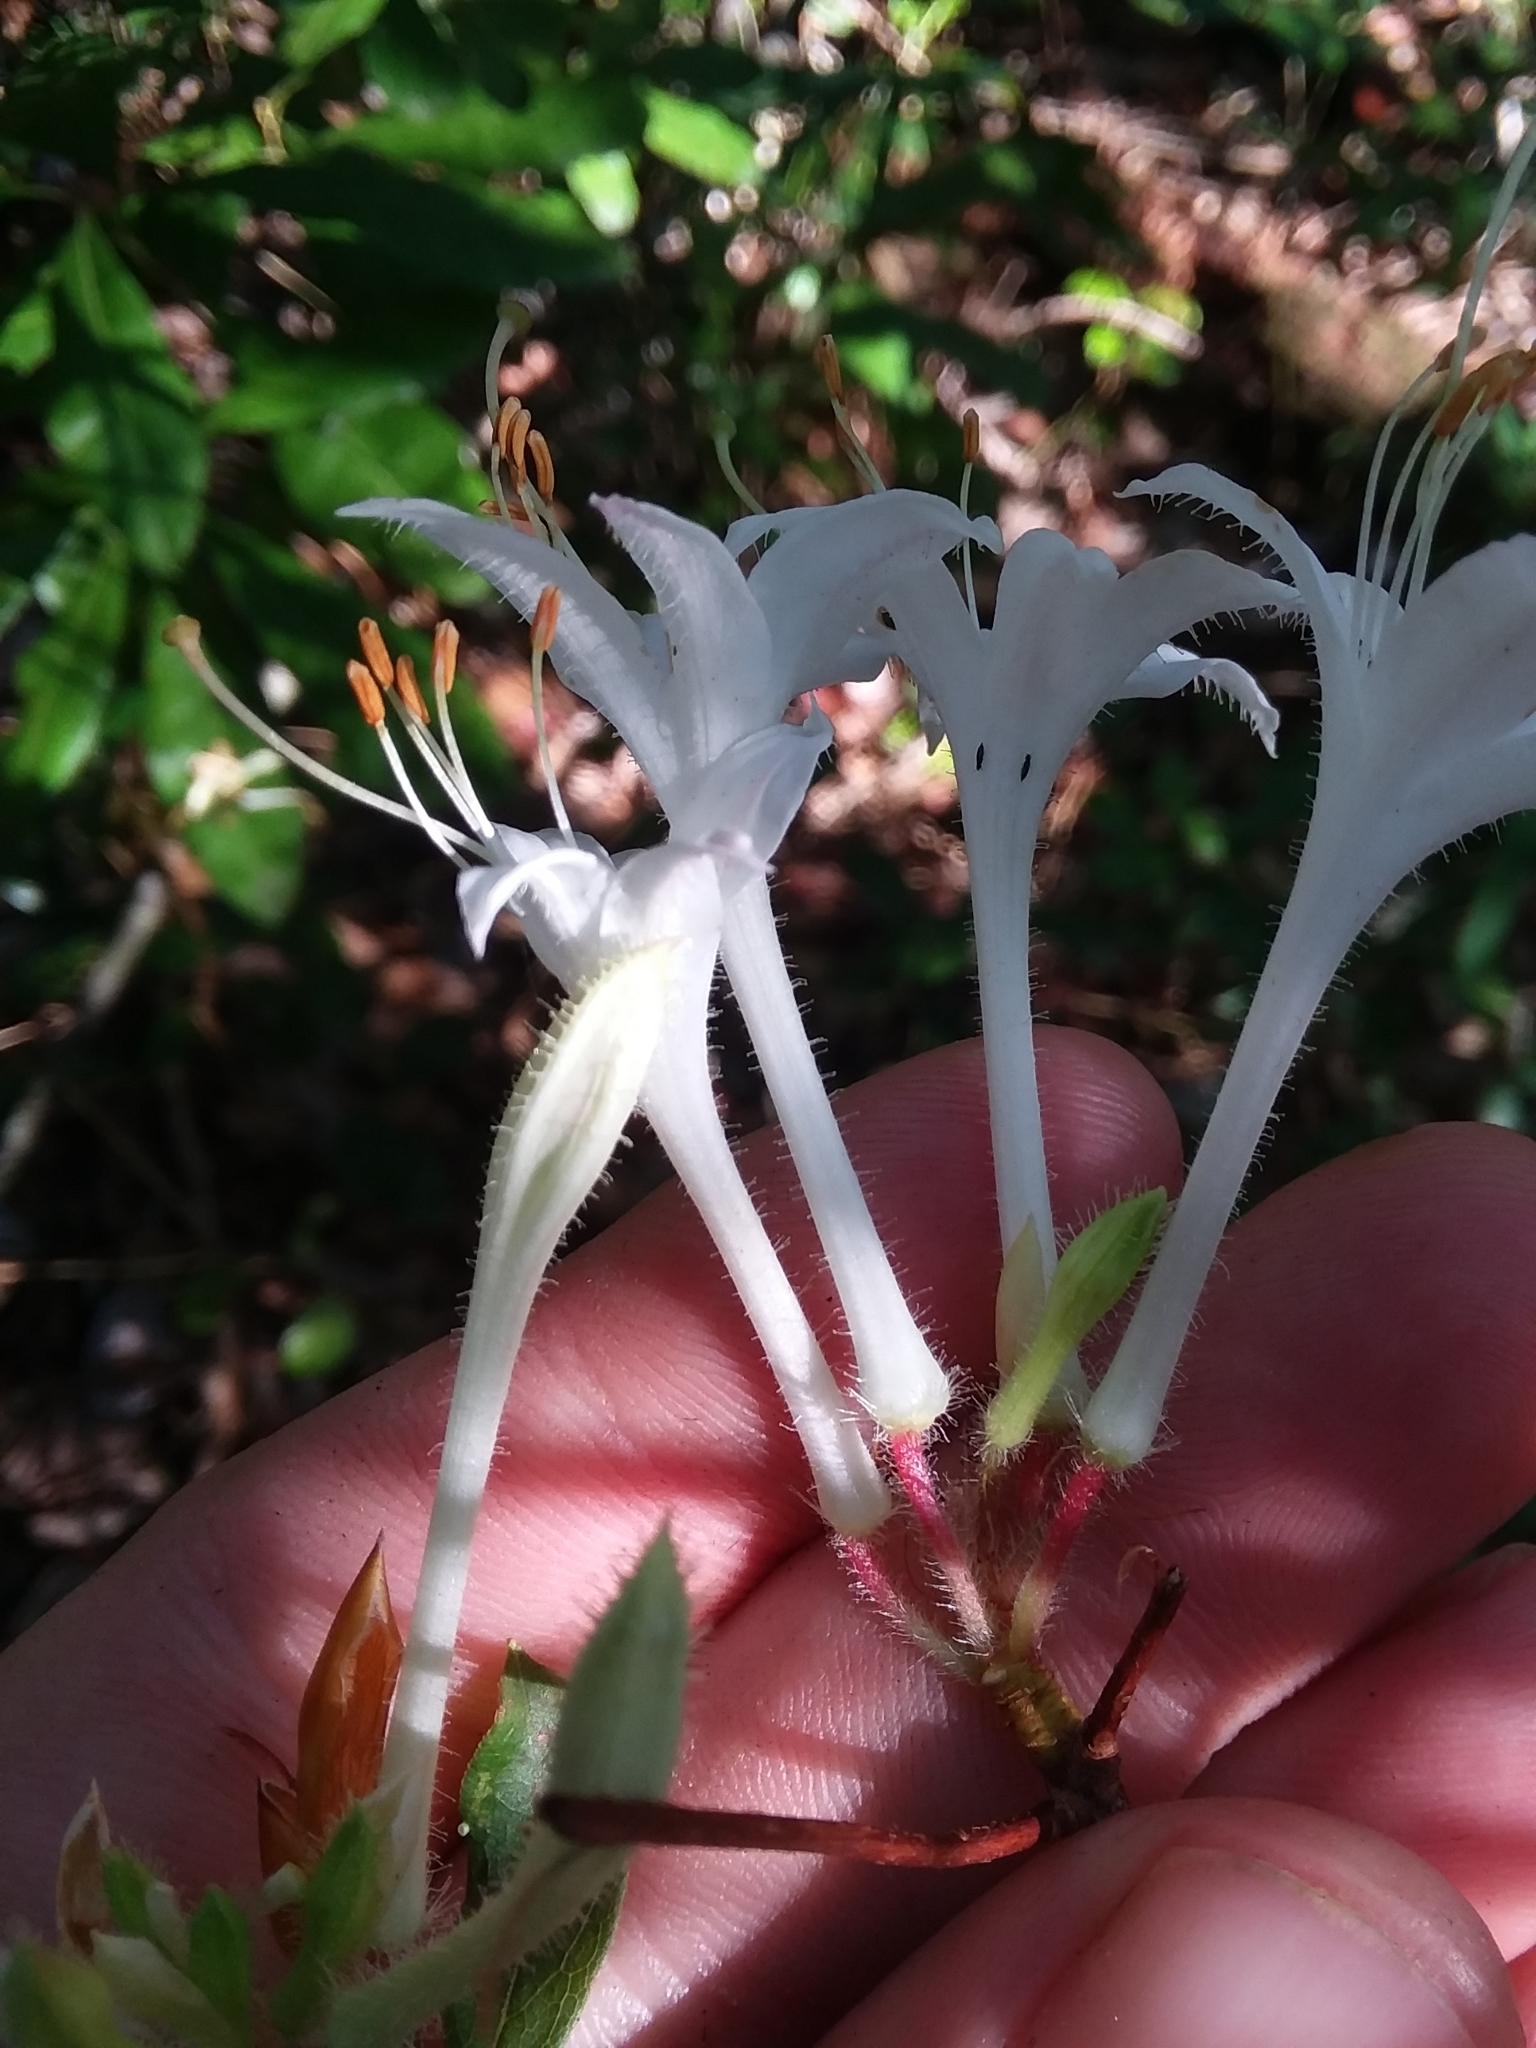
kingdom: Plantae
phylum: Tracheophyta
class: Magnoliopsida
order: Ericales
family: Ericaceae
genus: Rhododendron
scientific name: Rhododendron serrulatum
